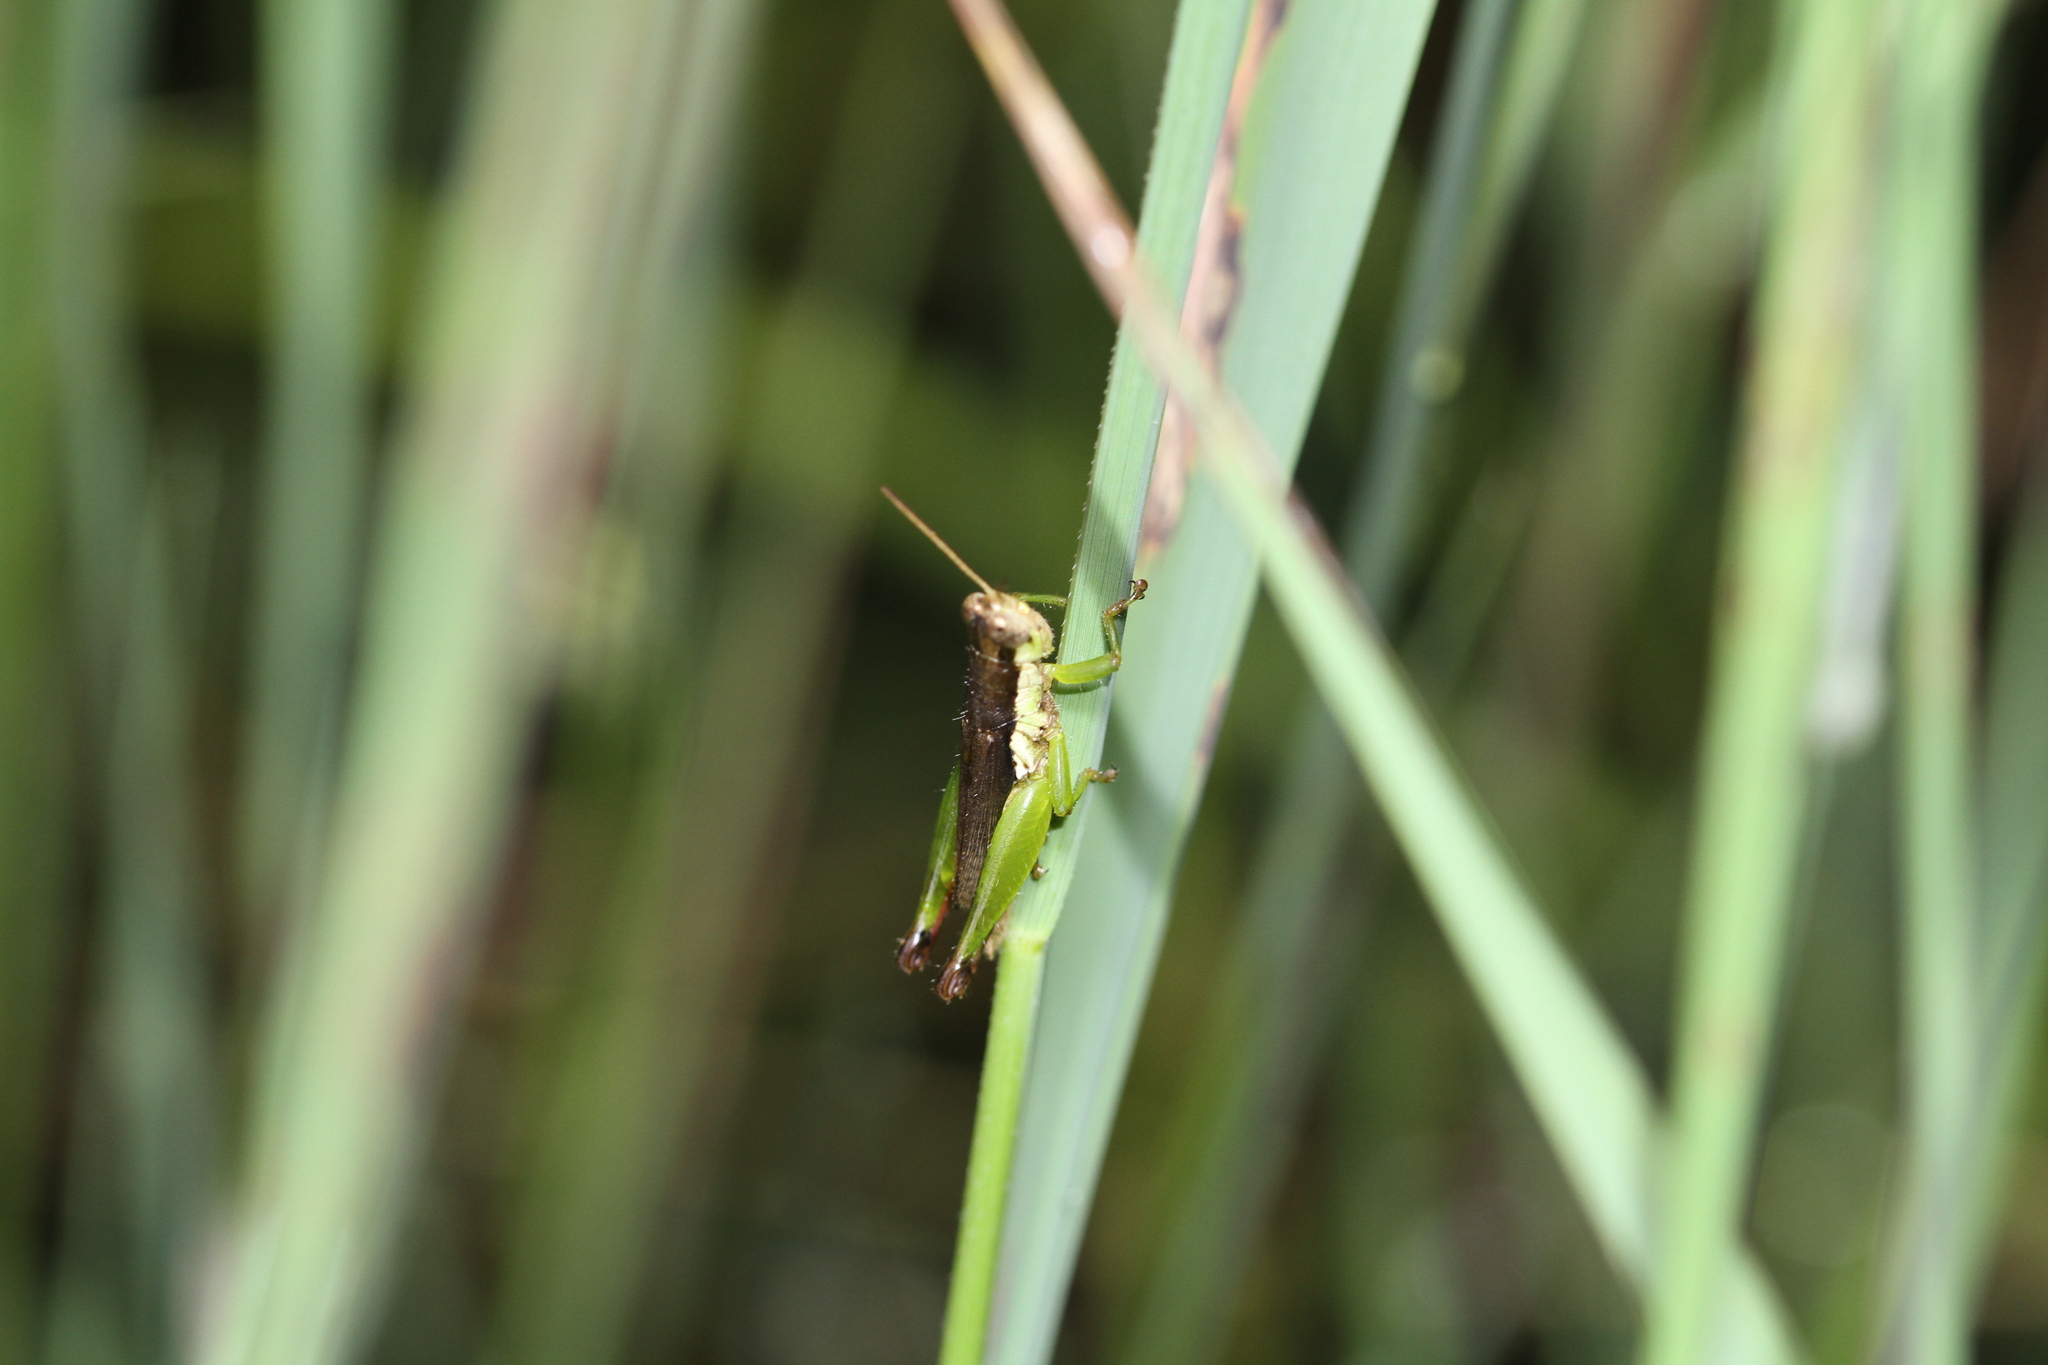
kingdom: Animalia
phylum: Arthropoda
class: Insecta
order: Orthoptera
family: Acrididae
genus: Pseudoxya
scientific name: Pseudoxya diminuta
